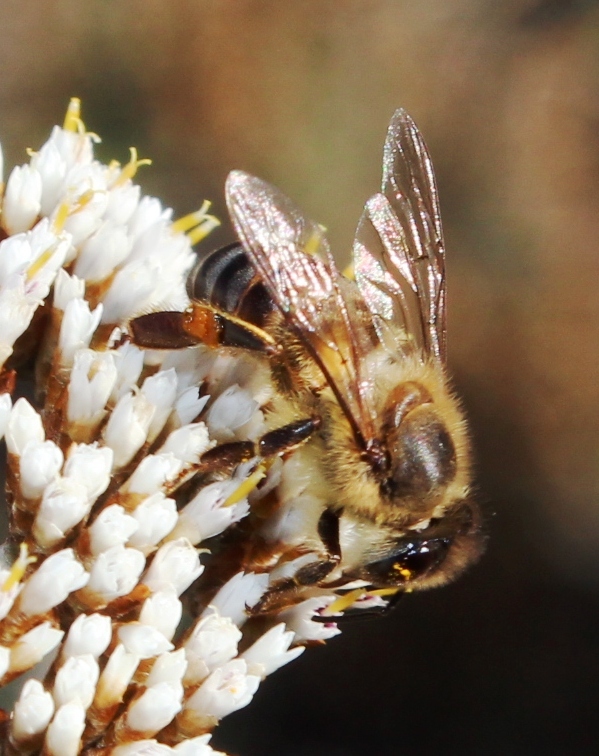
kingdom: Animalia
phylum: Arthropoda
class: Insecta
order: Hymenoptera
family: Apidae
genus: Apis
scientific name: Apis mellifera
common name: Honey bee
